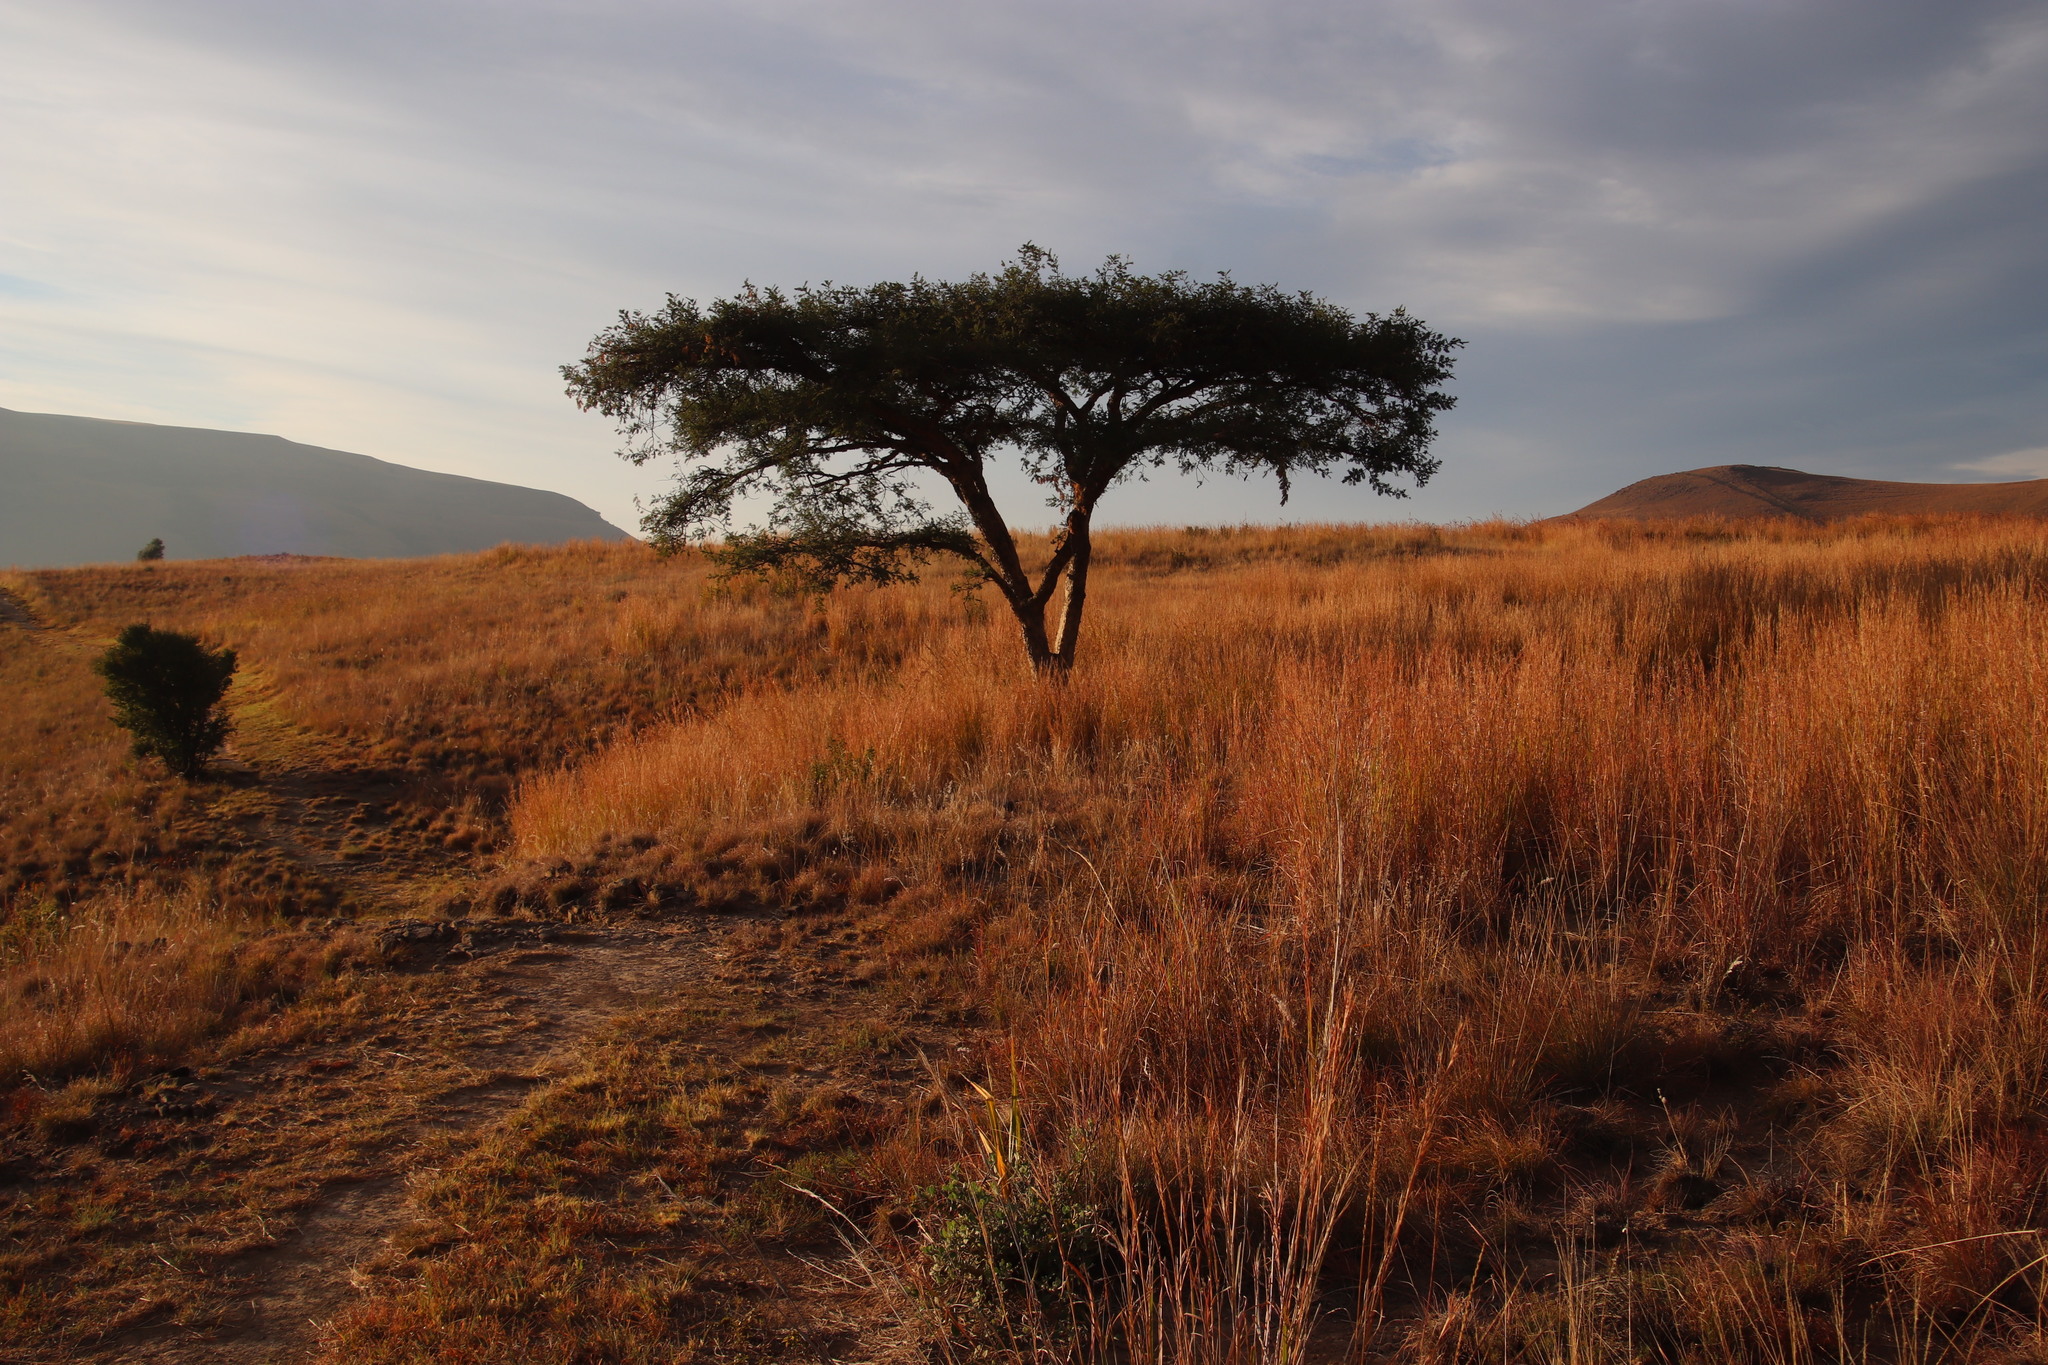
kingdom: Plantae
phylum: Tracheophyta
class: Magnoliopsida
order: Fabales
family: Fabaceae
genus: Vachellia
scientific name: Vachellia sieberiana
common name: Flat-topped thorn
